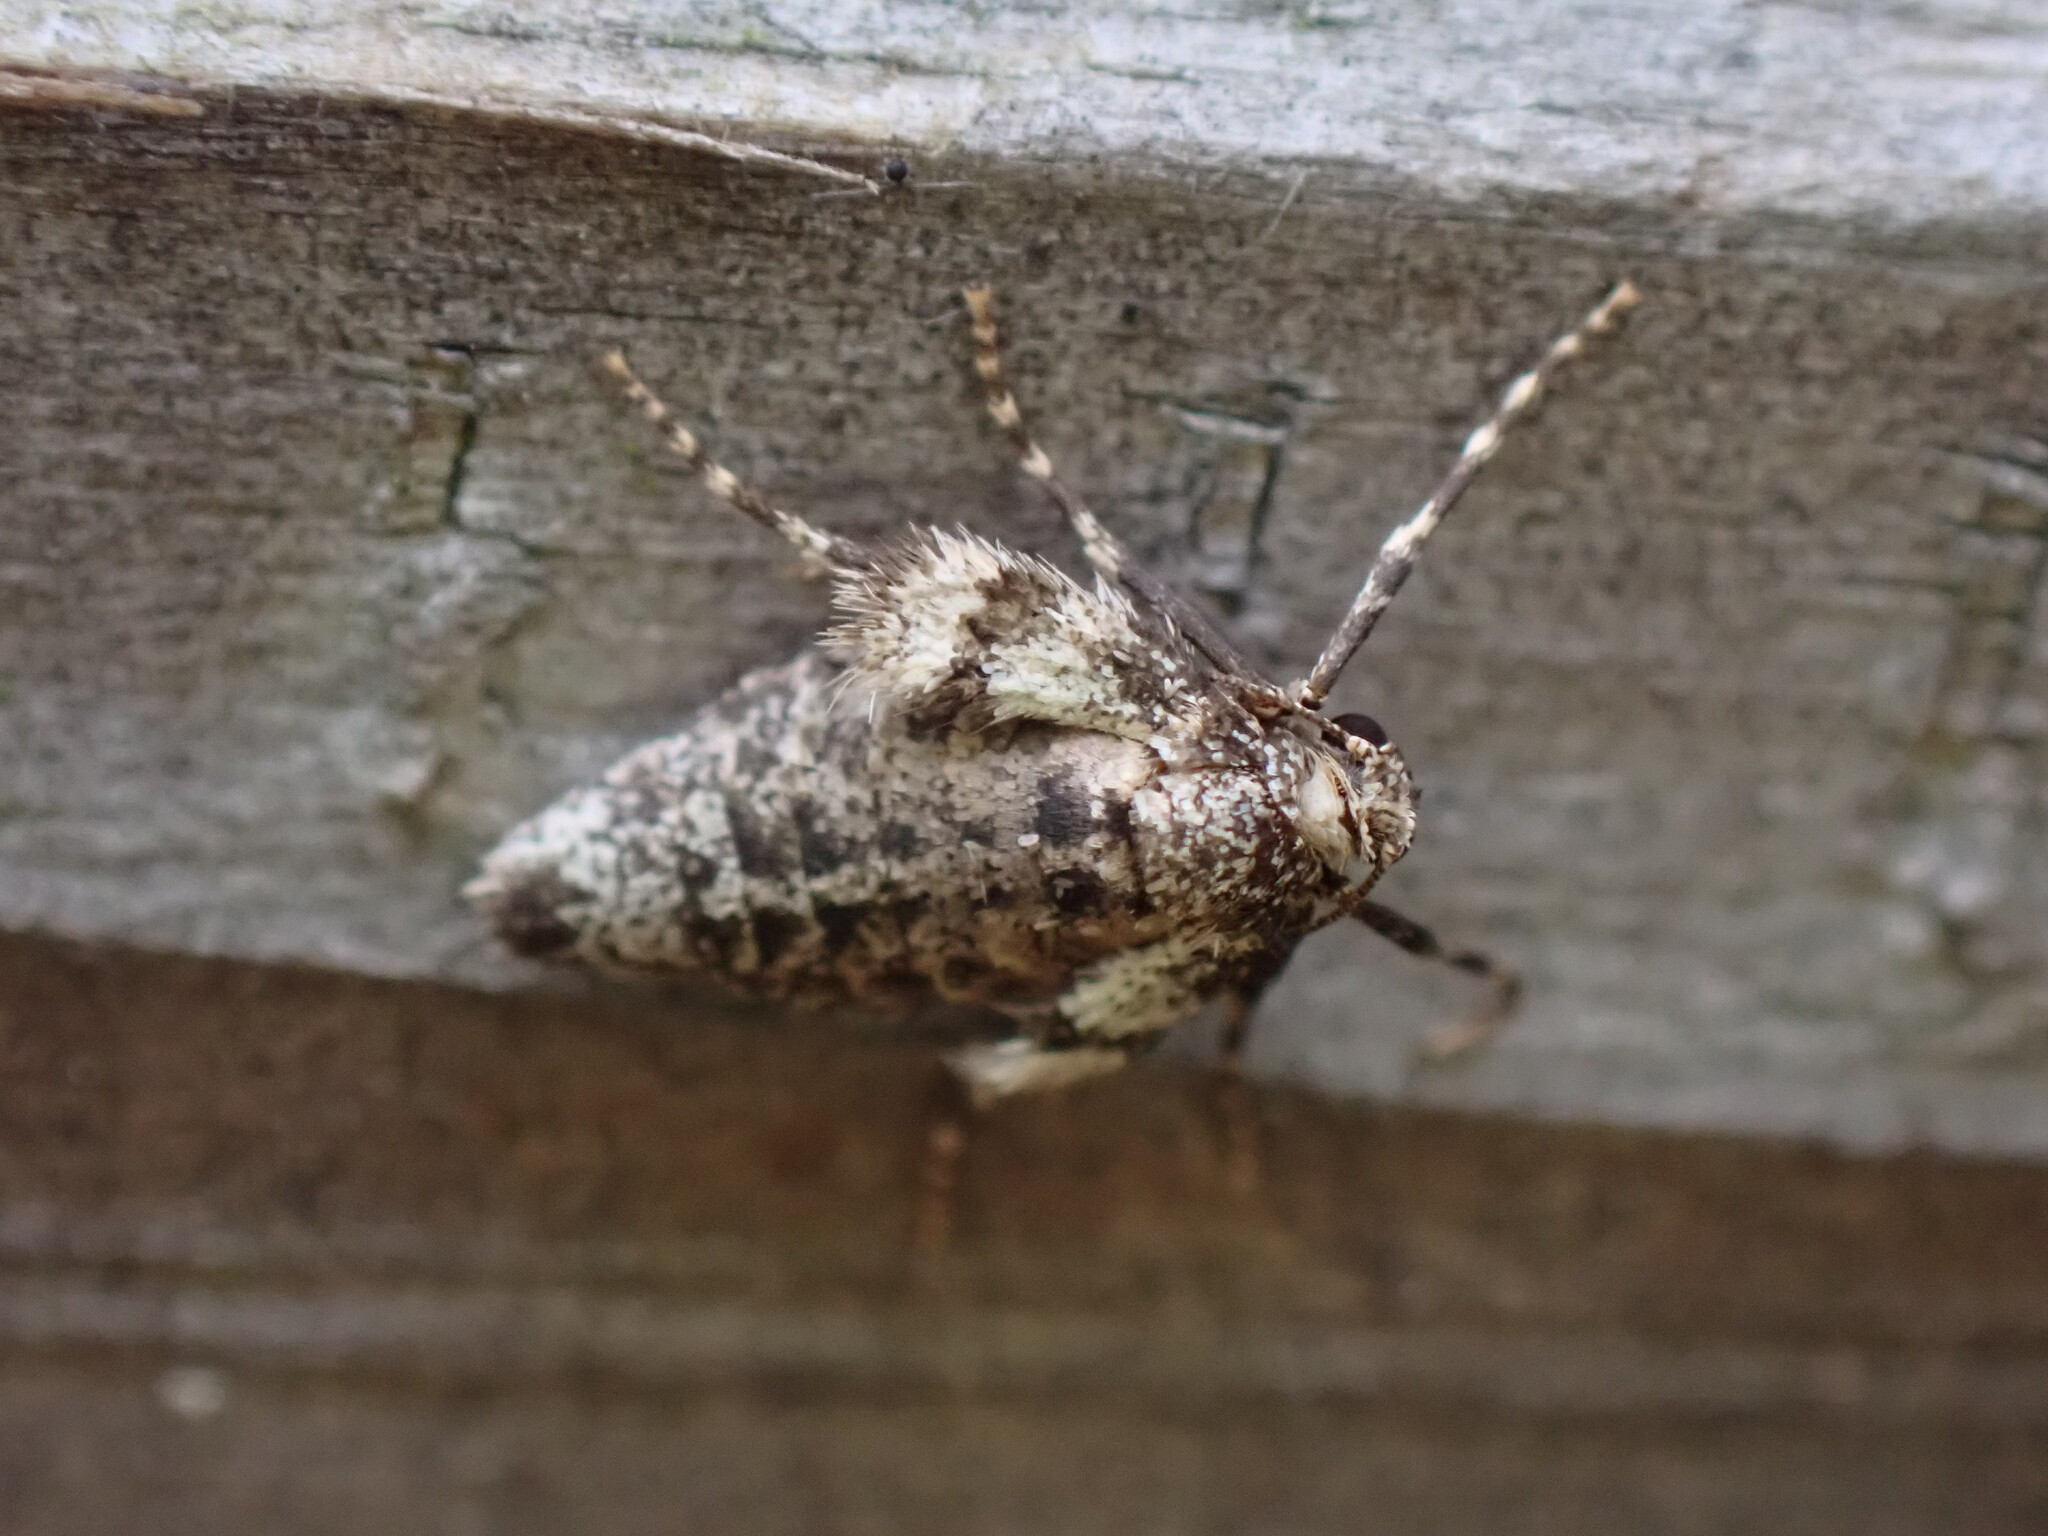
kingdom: Animalia
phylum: Arthropoda
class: Insecta
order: Lepidoptera
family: Geometridae
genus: Operophtera
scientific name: Operophtera brumata
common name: Winter moth
